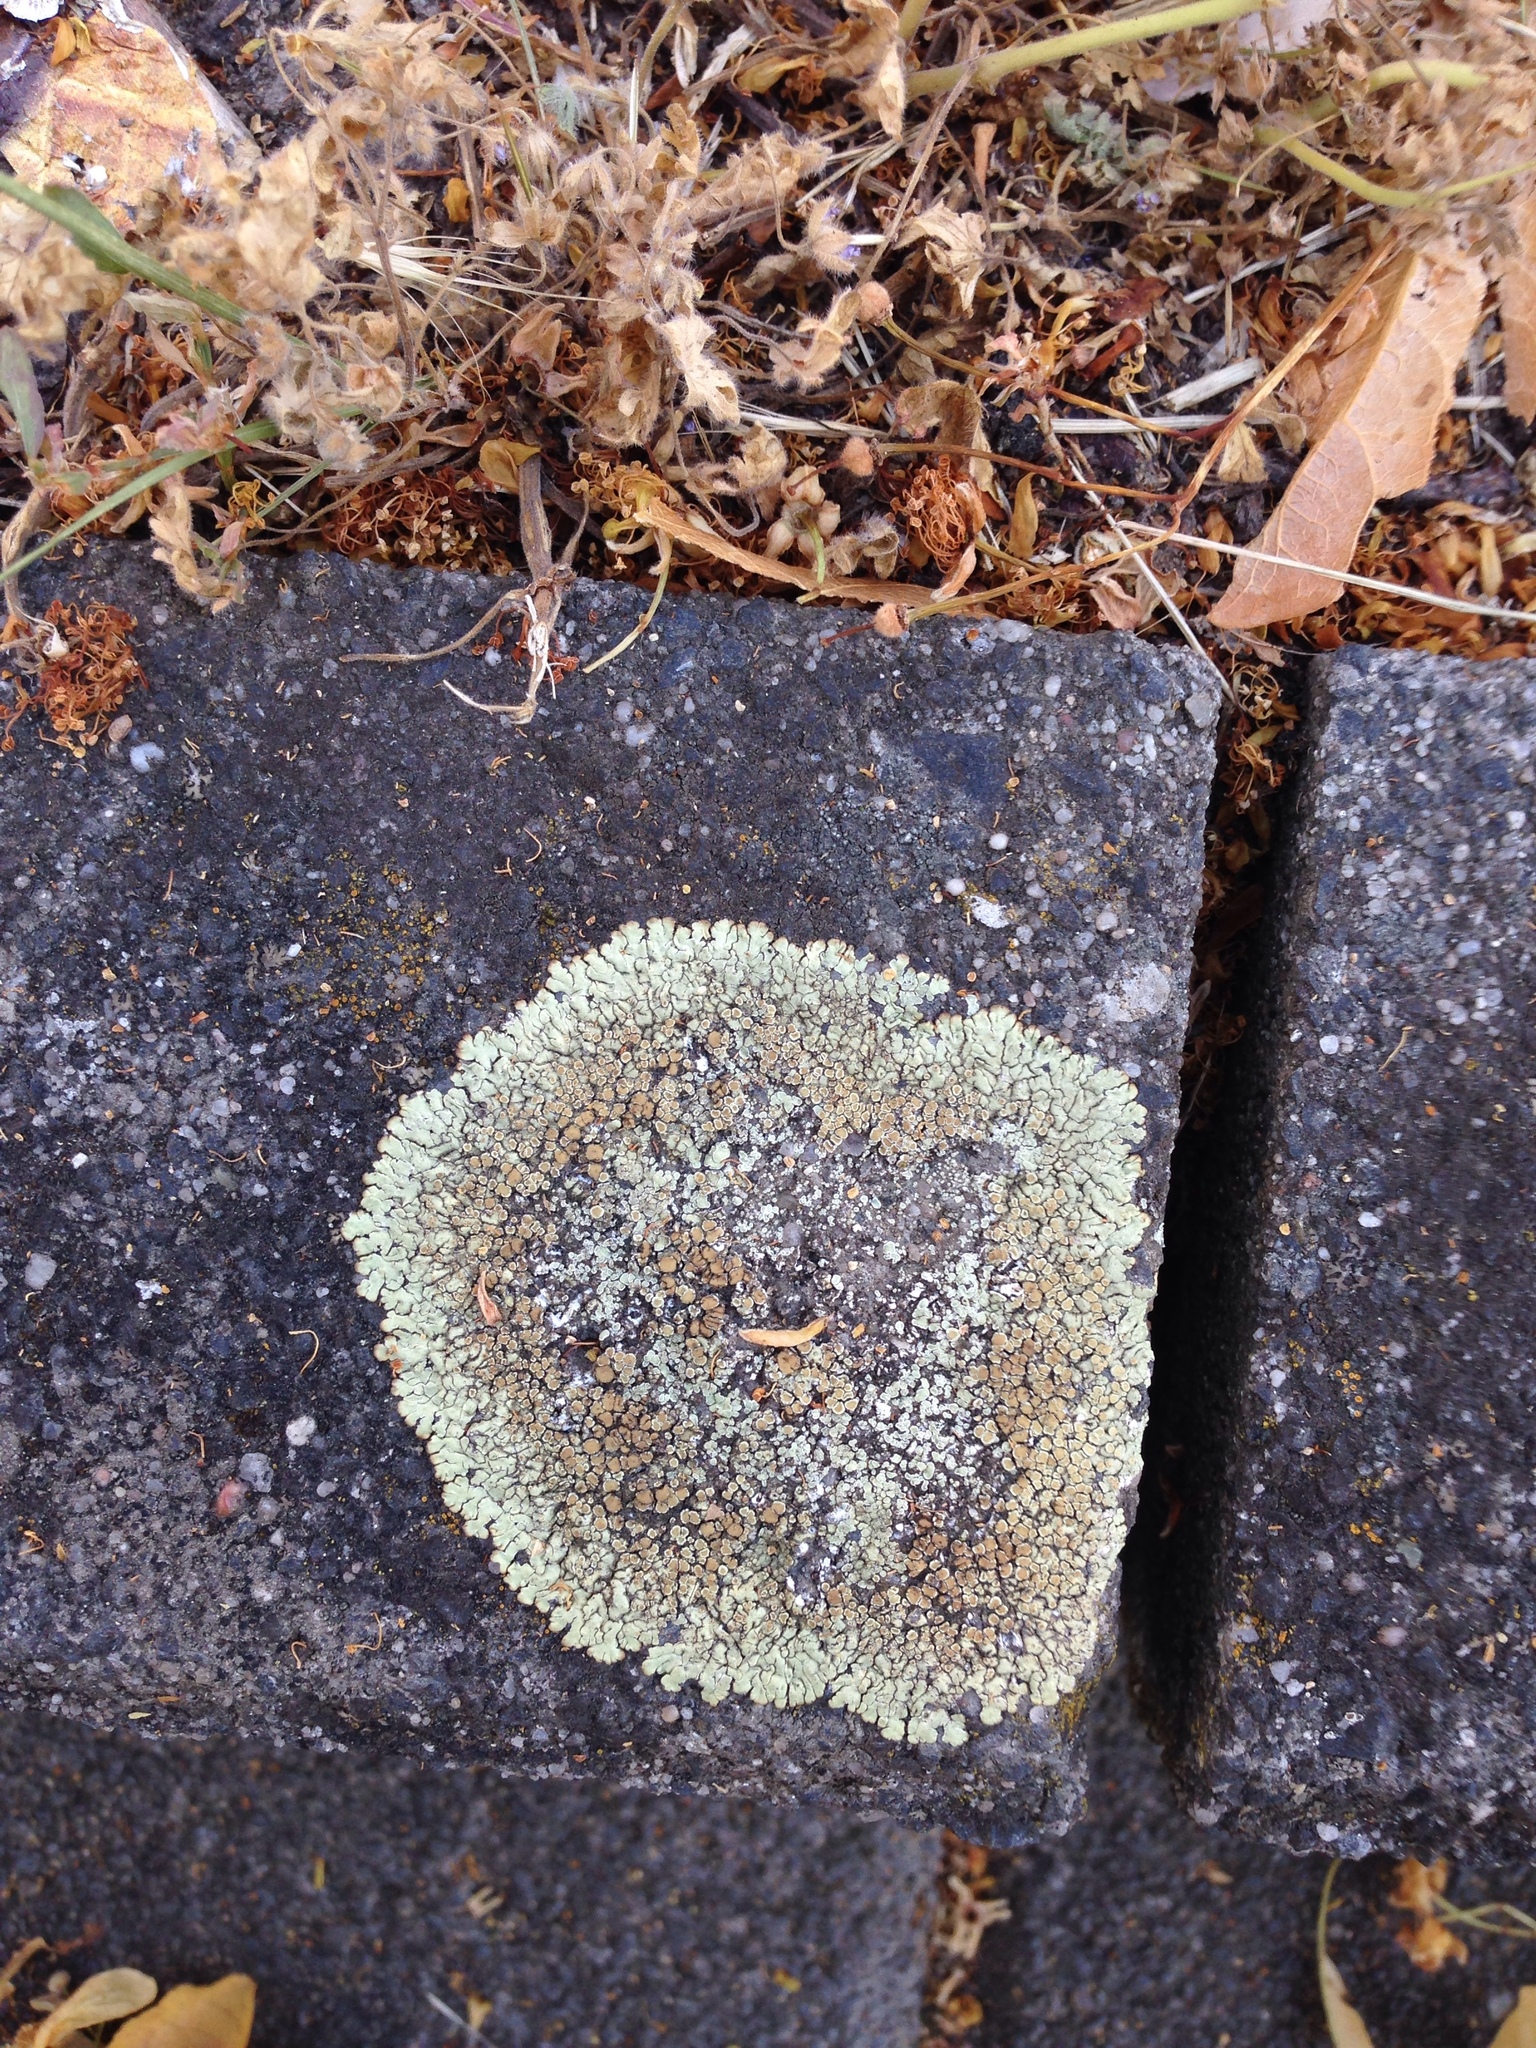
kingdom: Fungi
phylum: Ascomycota
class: Lecanoromycetes
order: Lecanorales
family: Lecanoraceae
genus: Protoparmeliopsis
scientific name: Protoparmeliopsis muralis
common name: Stonewall rim lichen
